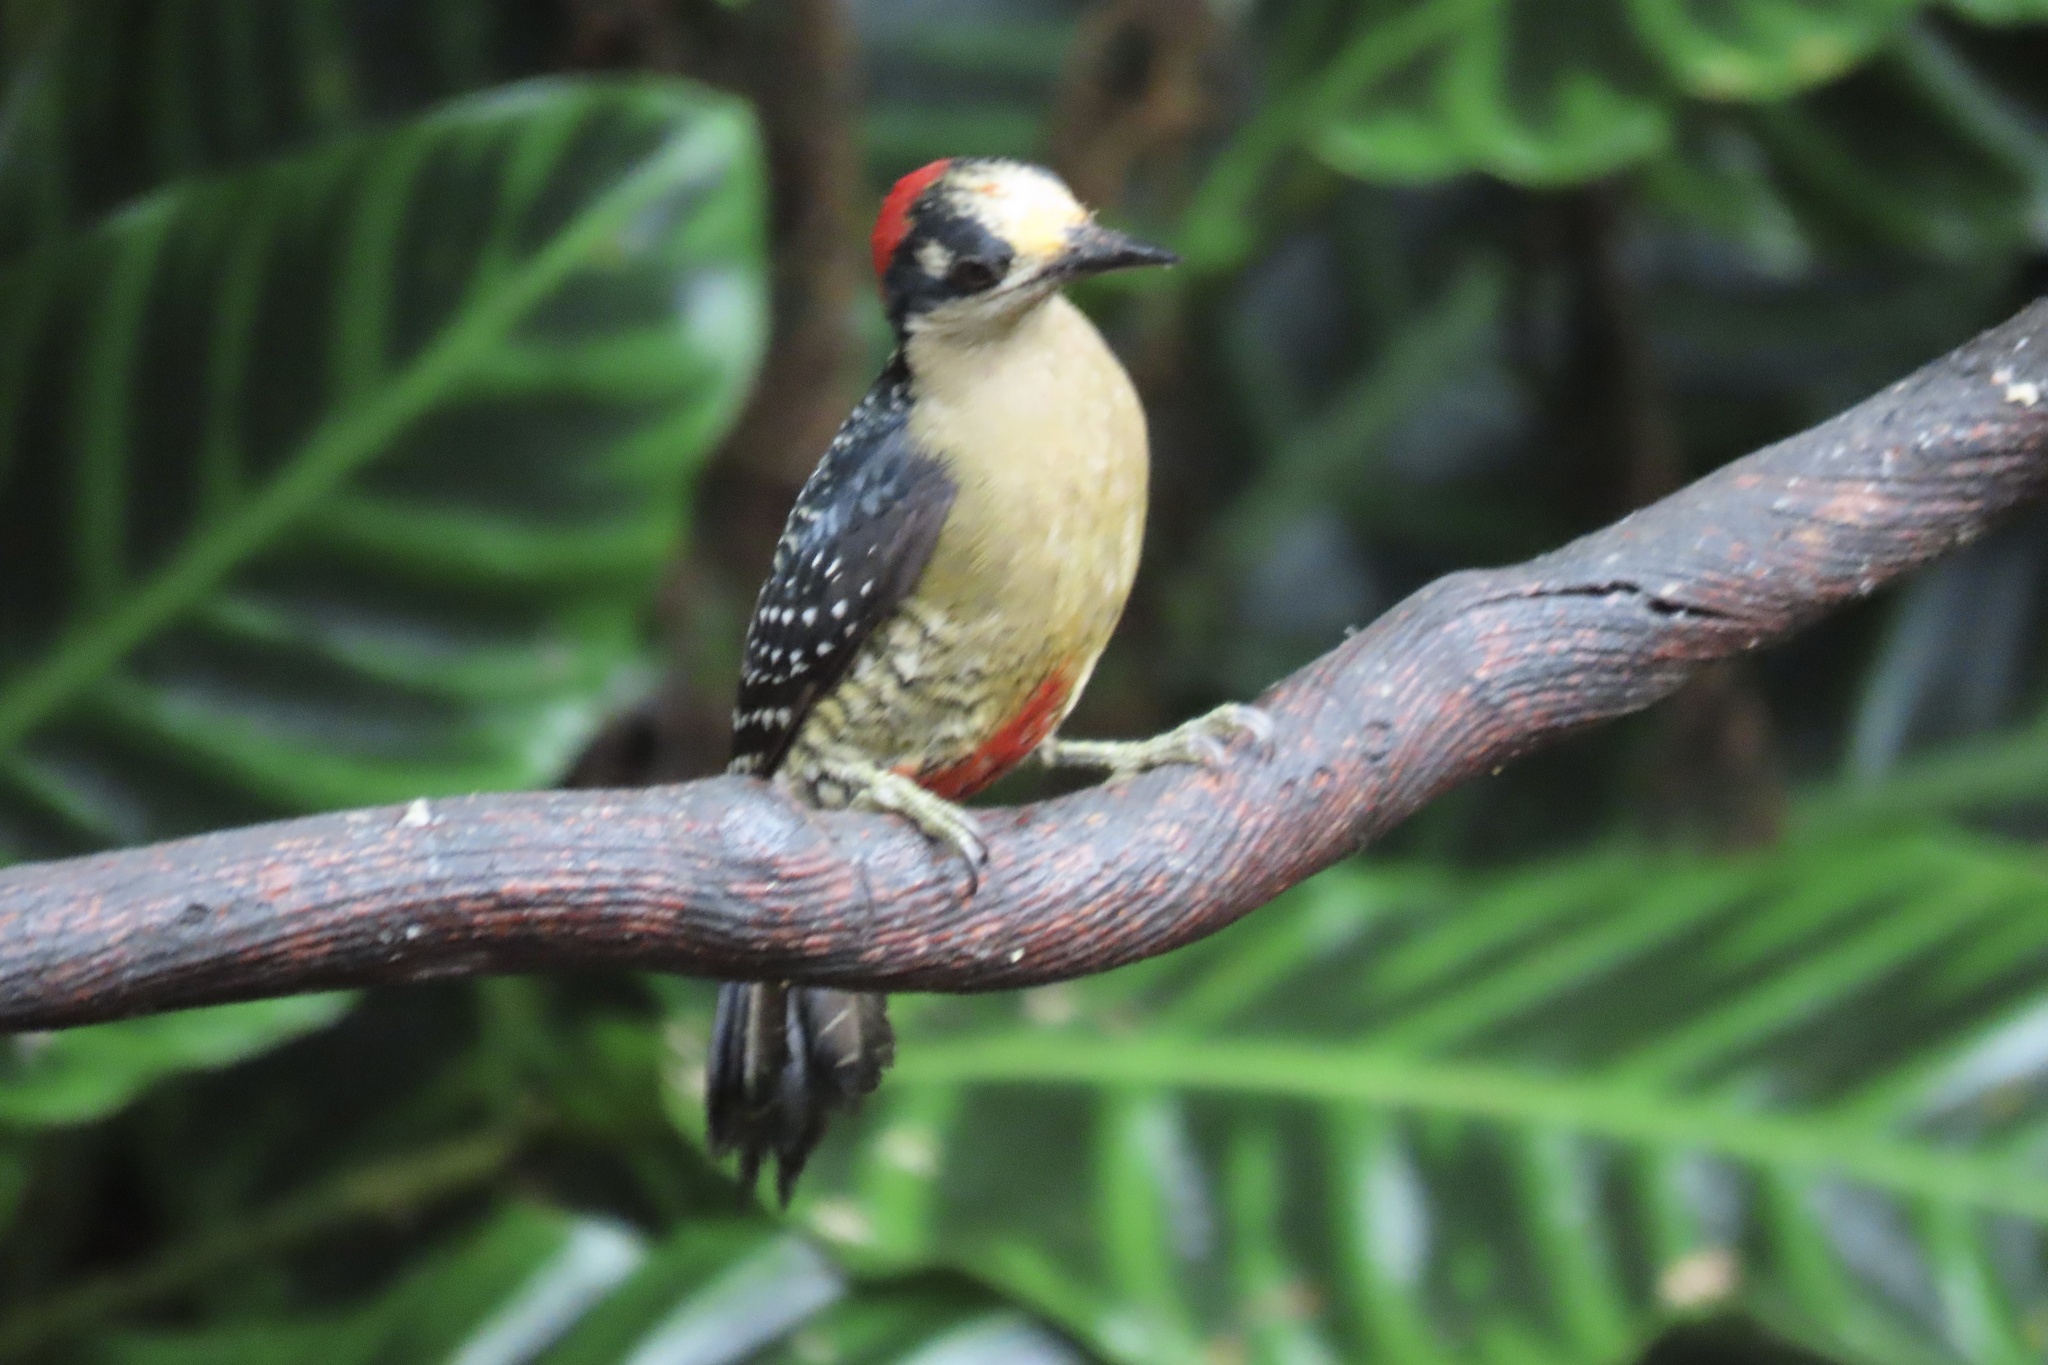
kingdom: Animalia
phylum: Chordata
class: Aves
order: Piciformes
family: Picidae
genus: Melanerpes
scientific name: Melanerpes pucherani
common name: Black-cheeked woodpecker
